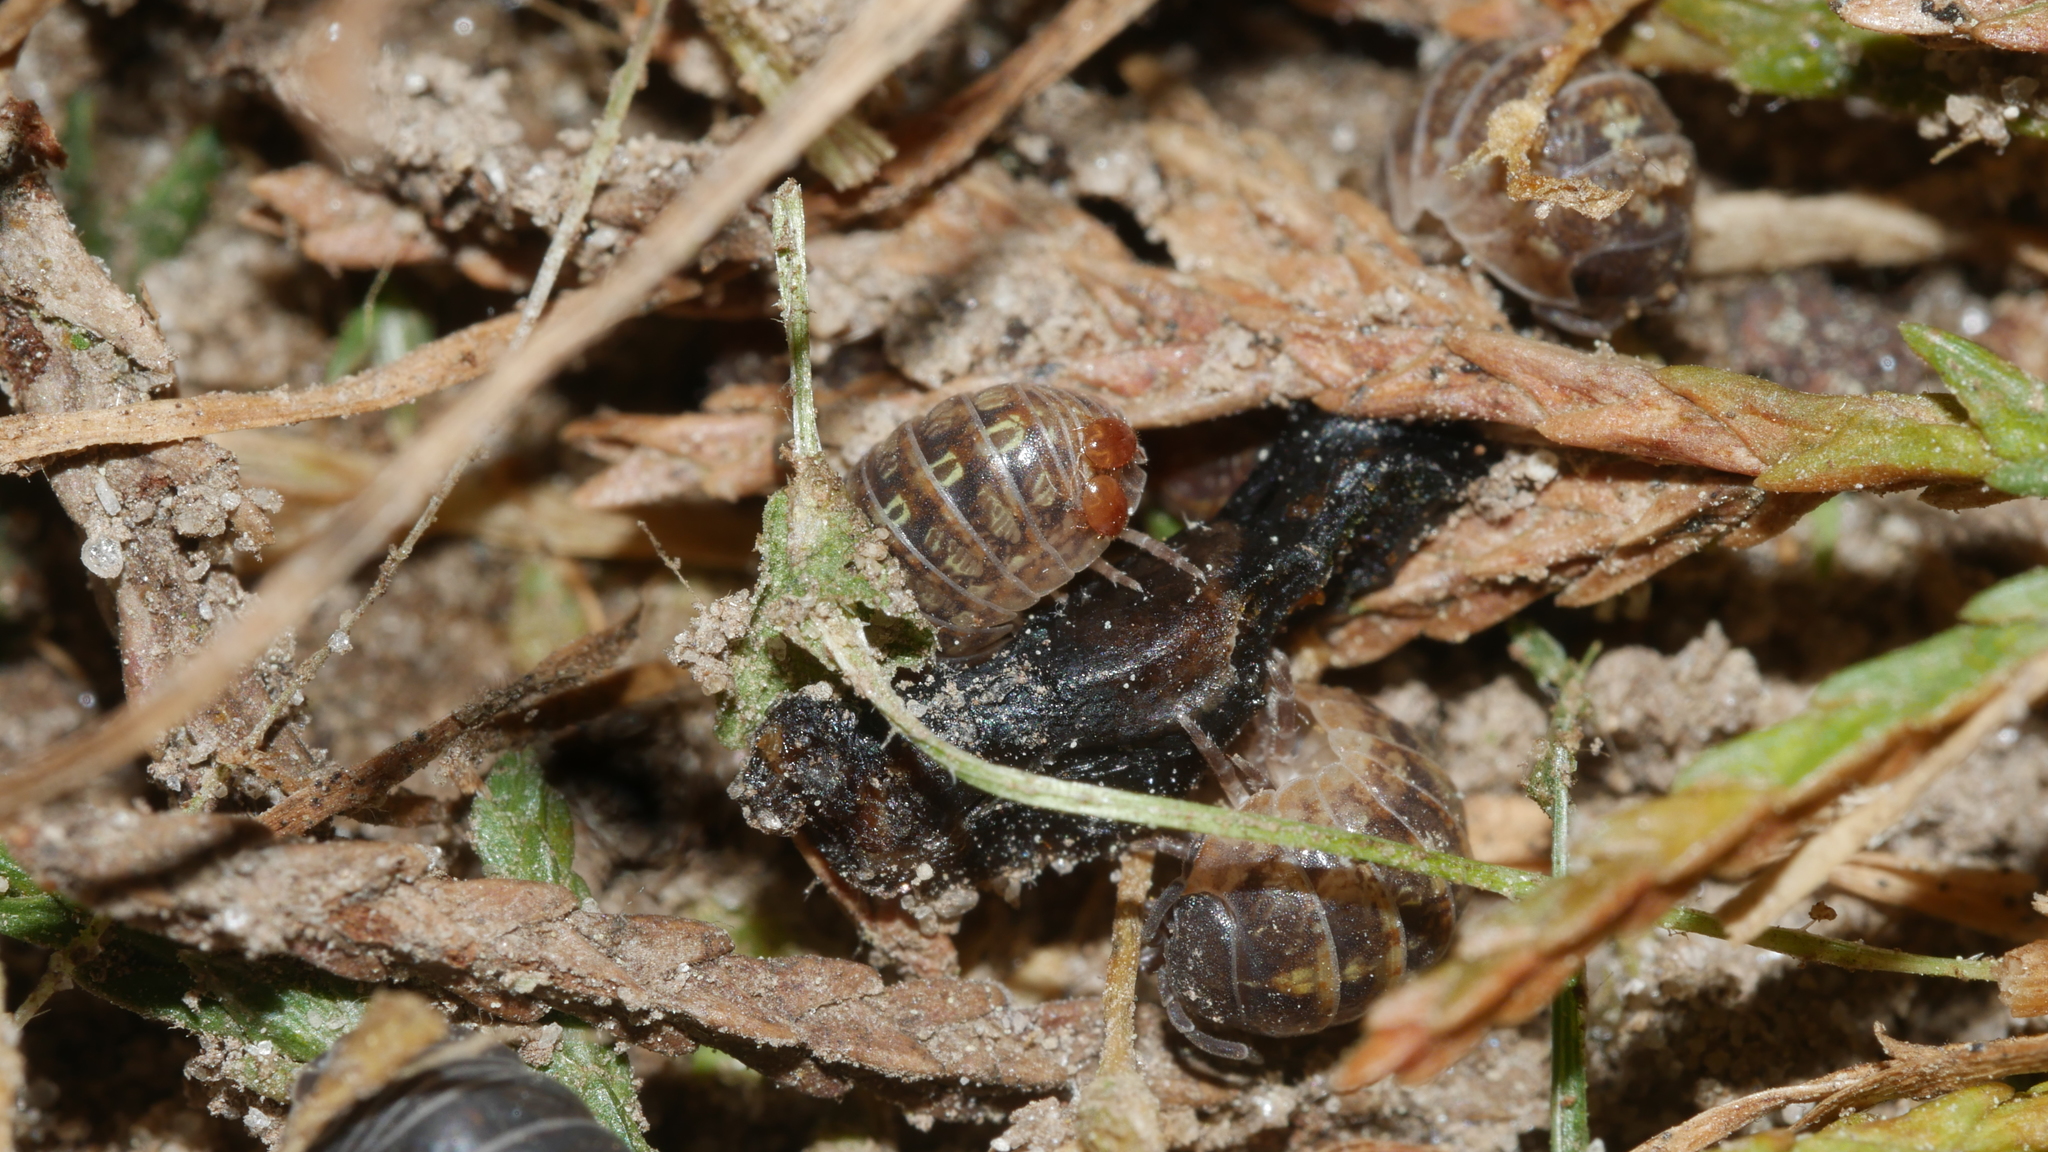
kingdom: Animalia
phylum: Arthropoda
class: Malacostraca
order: Isopoda
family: Armadillidiidae
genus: Armadillidium
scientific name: Armadillidium vulgare
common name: Common pill woodlouse
